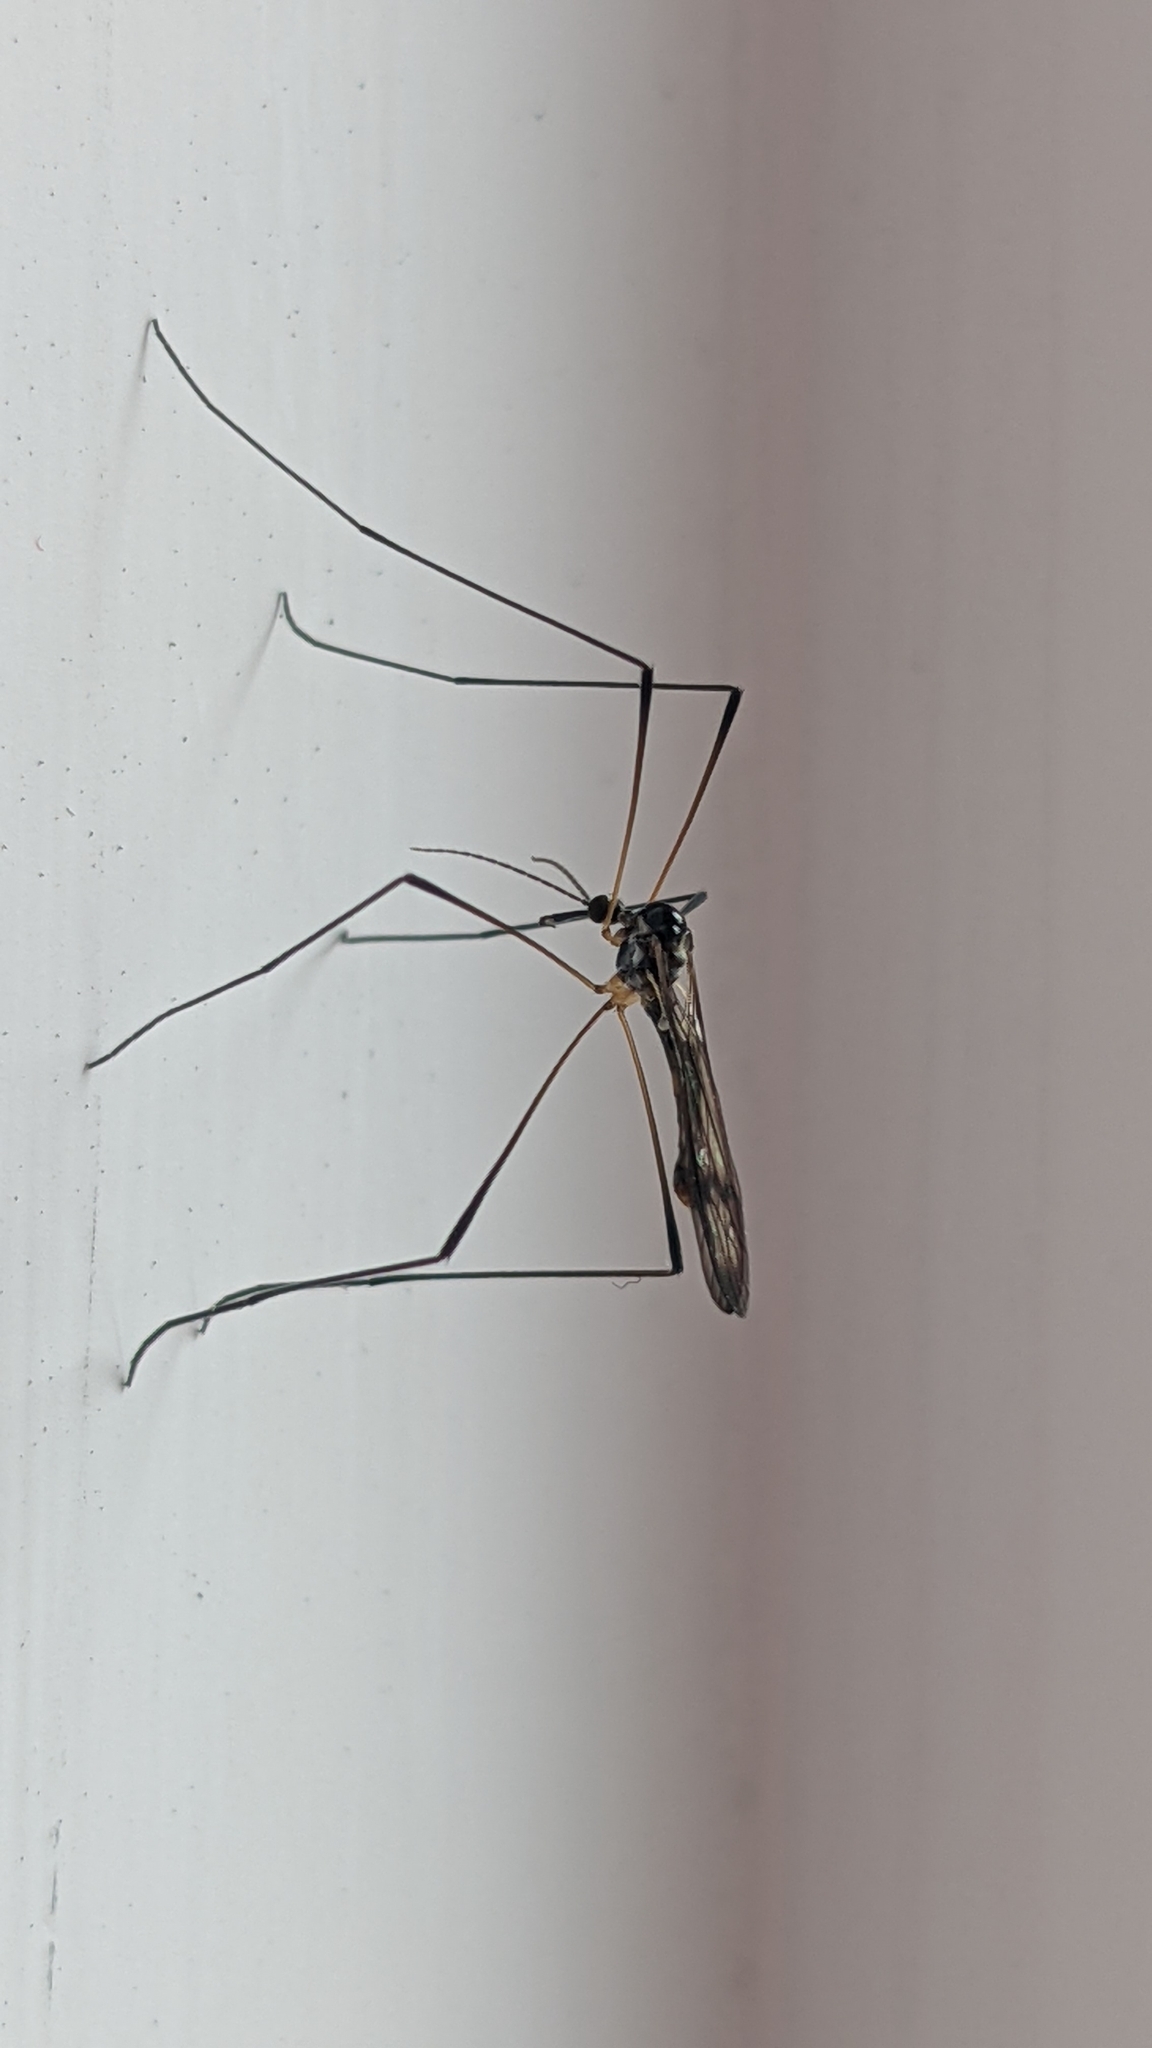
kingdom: Animalia
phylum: Arthropoda
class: Insecta
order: Diptera
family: Limoniidae
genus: Helius
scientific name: Helius harrisi
